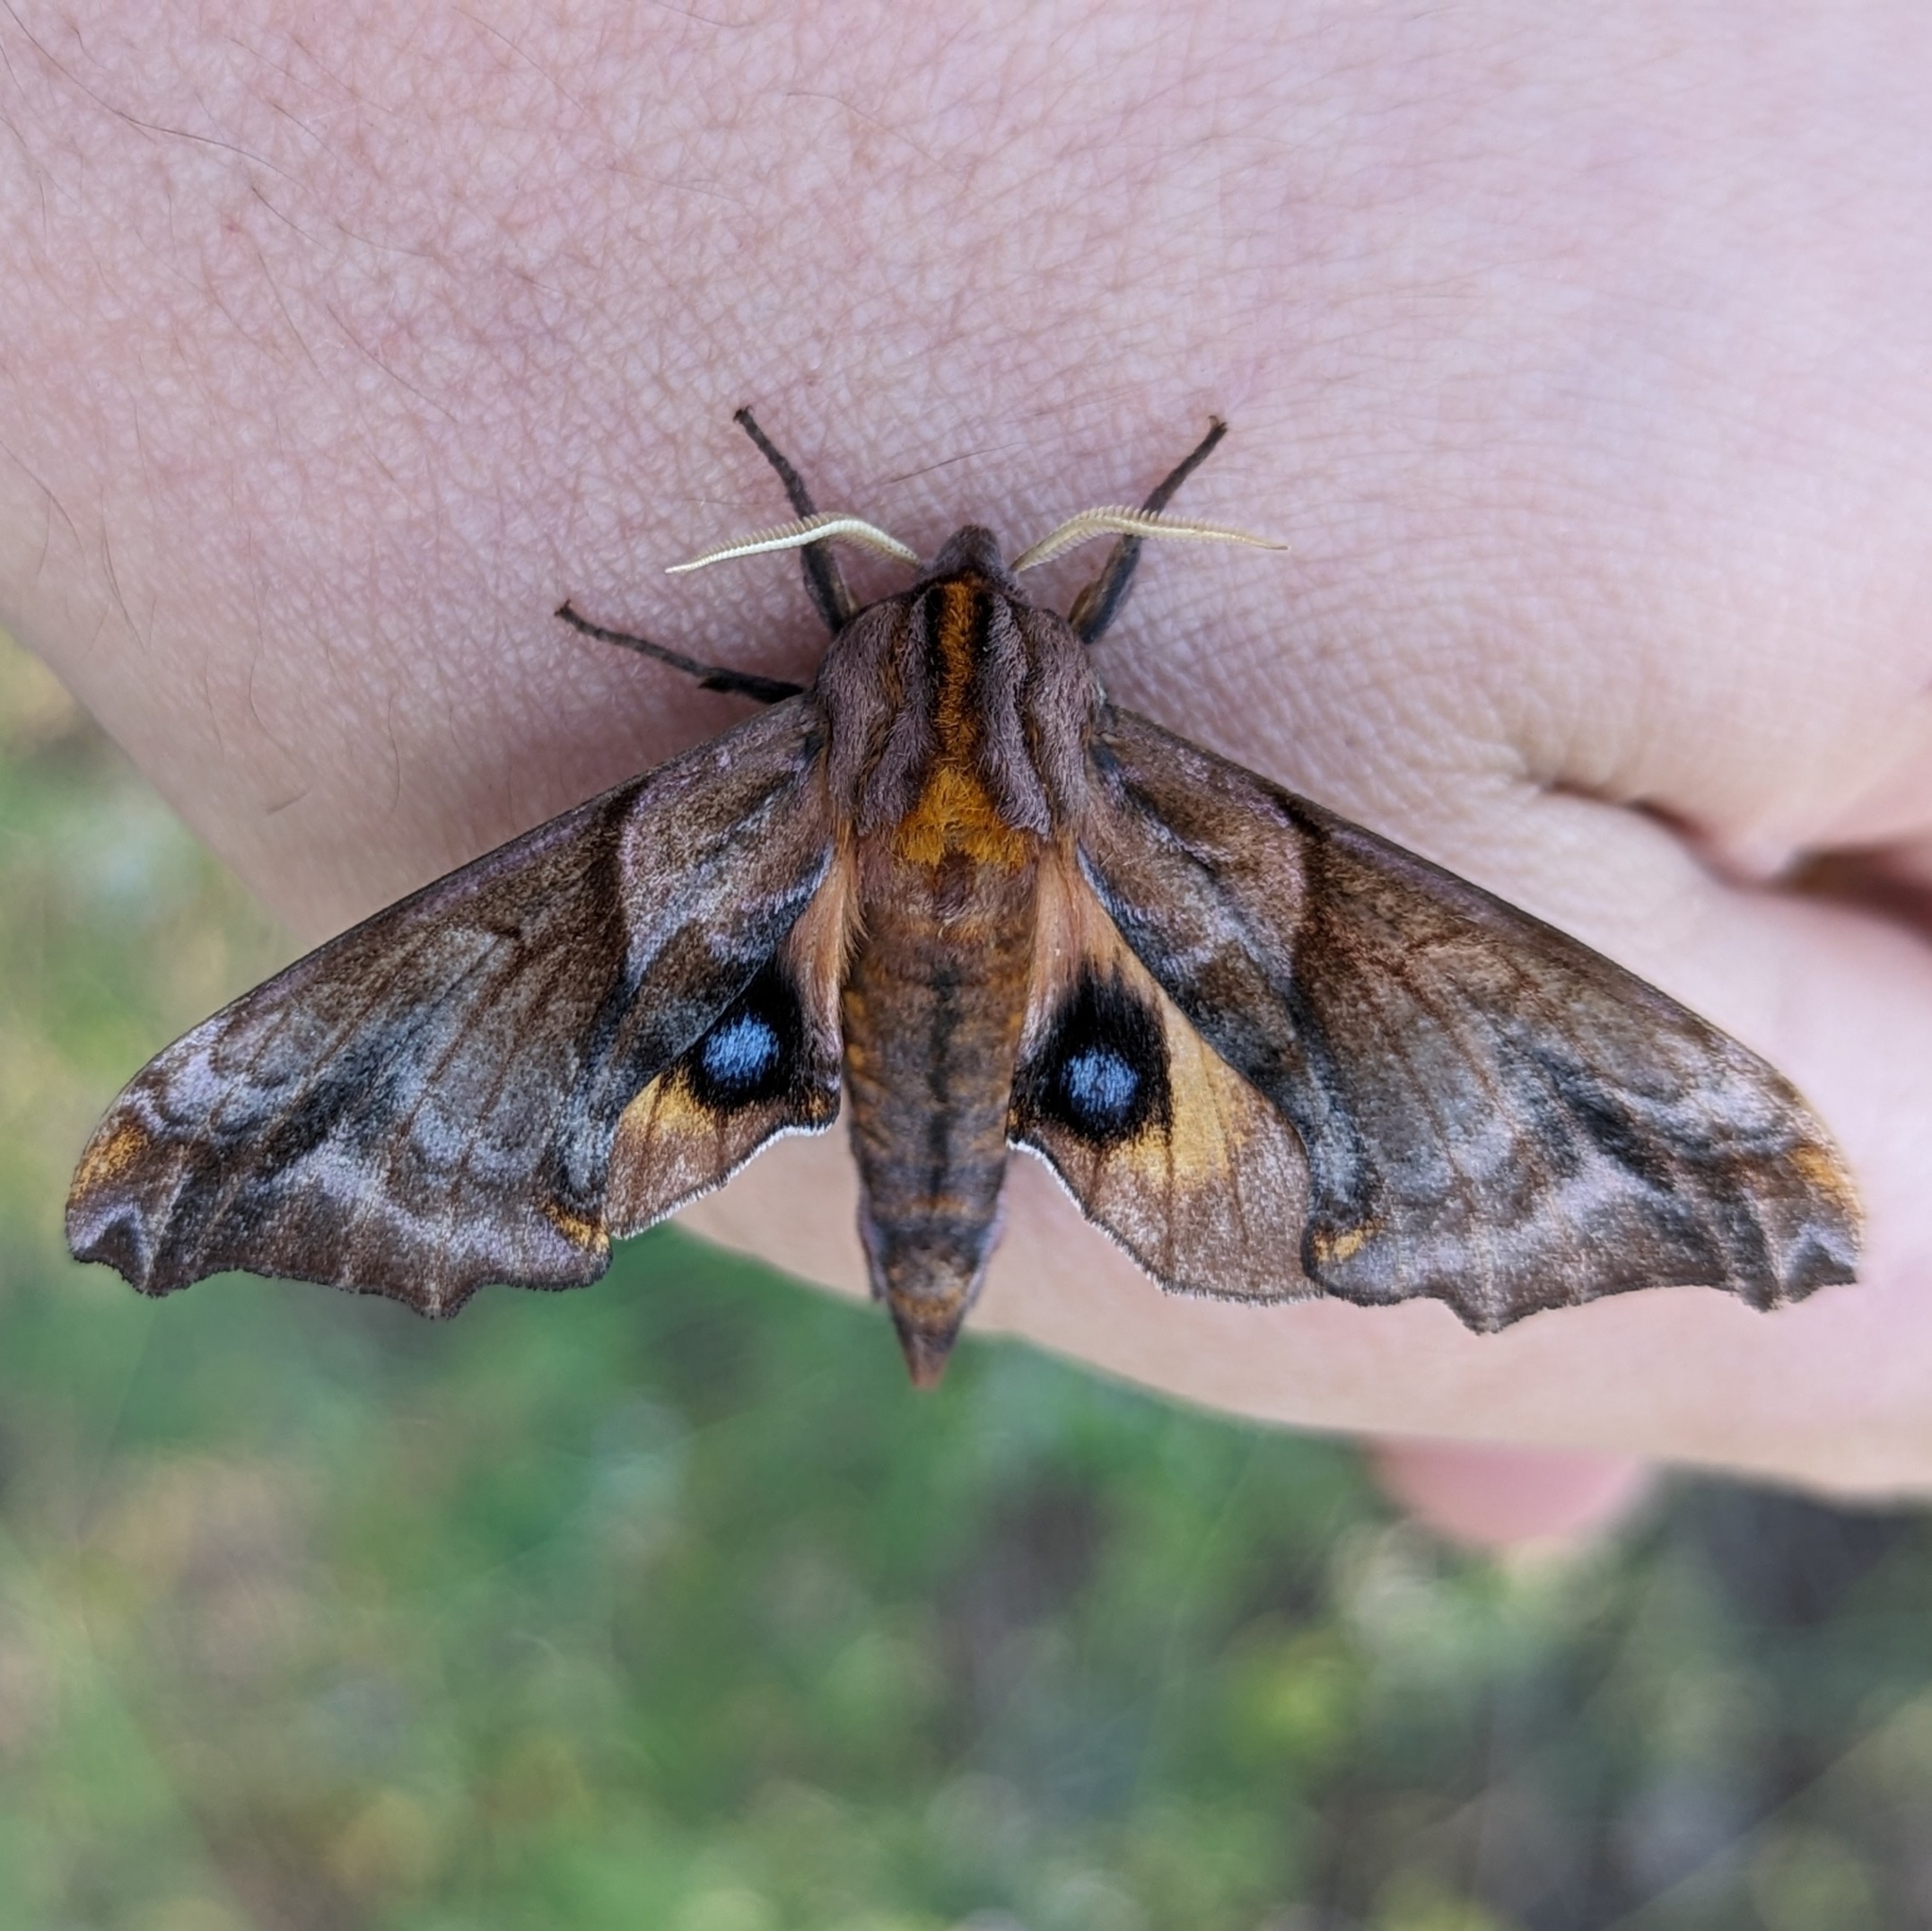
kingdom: Animalia
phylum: Arthropoda
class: Insecta
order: Lepidoptera
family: Sphingidae
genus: Paonias
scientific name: Paonias myops
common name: Small-eyed sphinx
